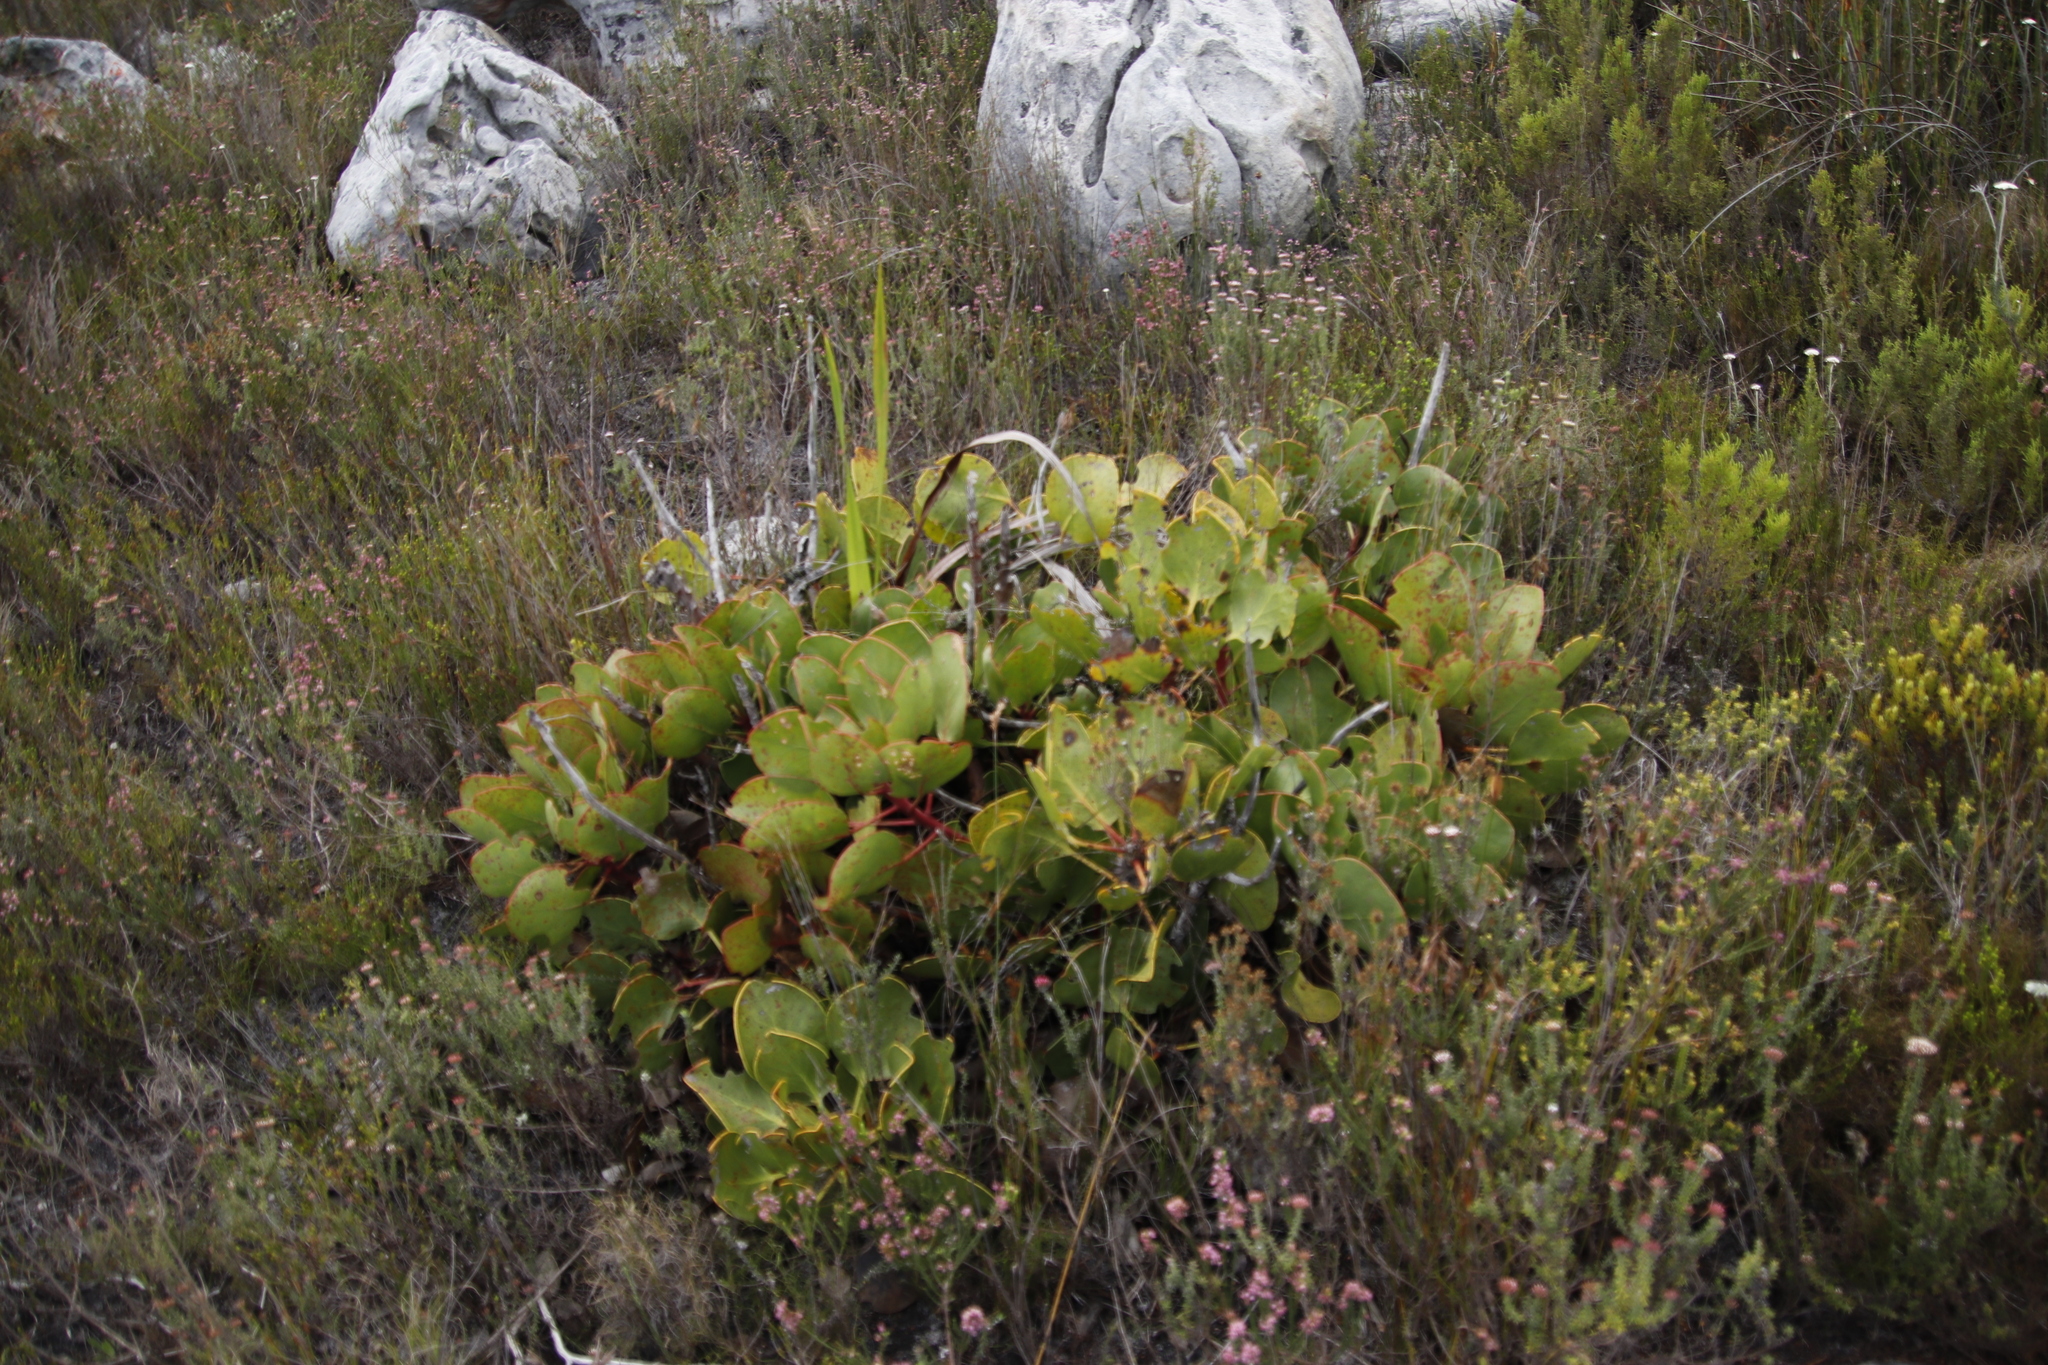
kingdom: Plantae
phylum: Tracheophyta
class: Magnoliopsida
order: Proteales
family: Proteaceae
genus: Protea
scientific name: Protea cynaroides
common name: King protea
